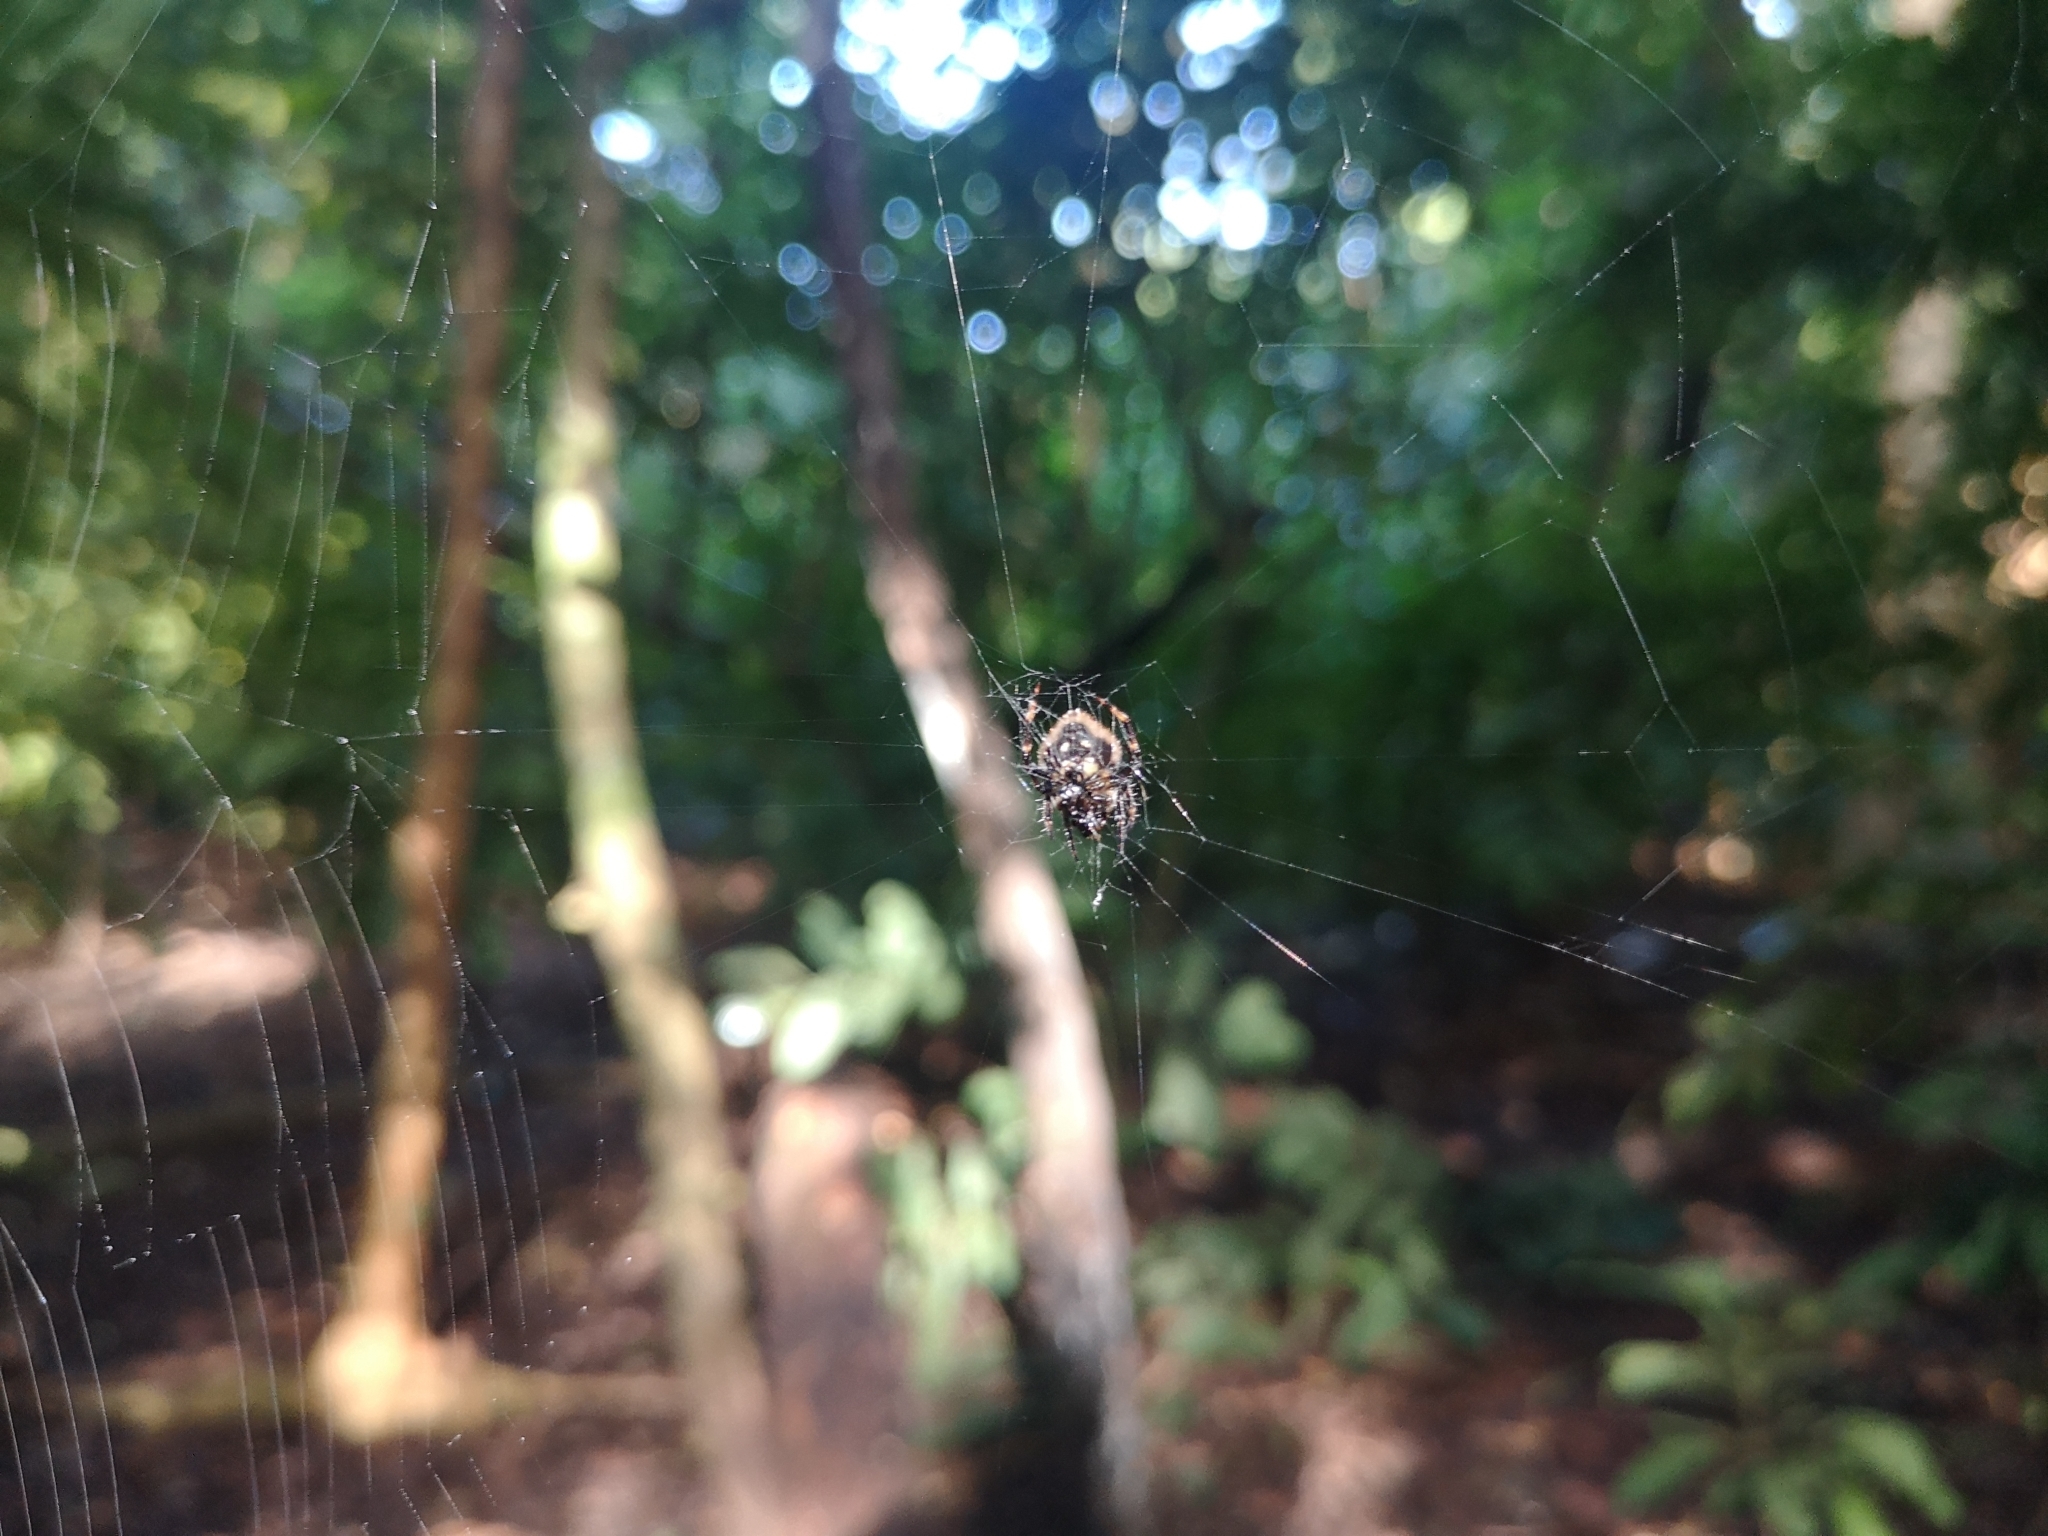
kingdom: Animalia
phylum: Arthropoda
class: Arachnida
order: Araneae
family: Araneidae
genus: Eriovixia
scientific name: Eriovixia laglaizei
